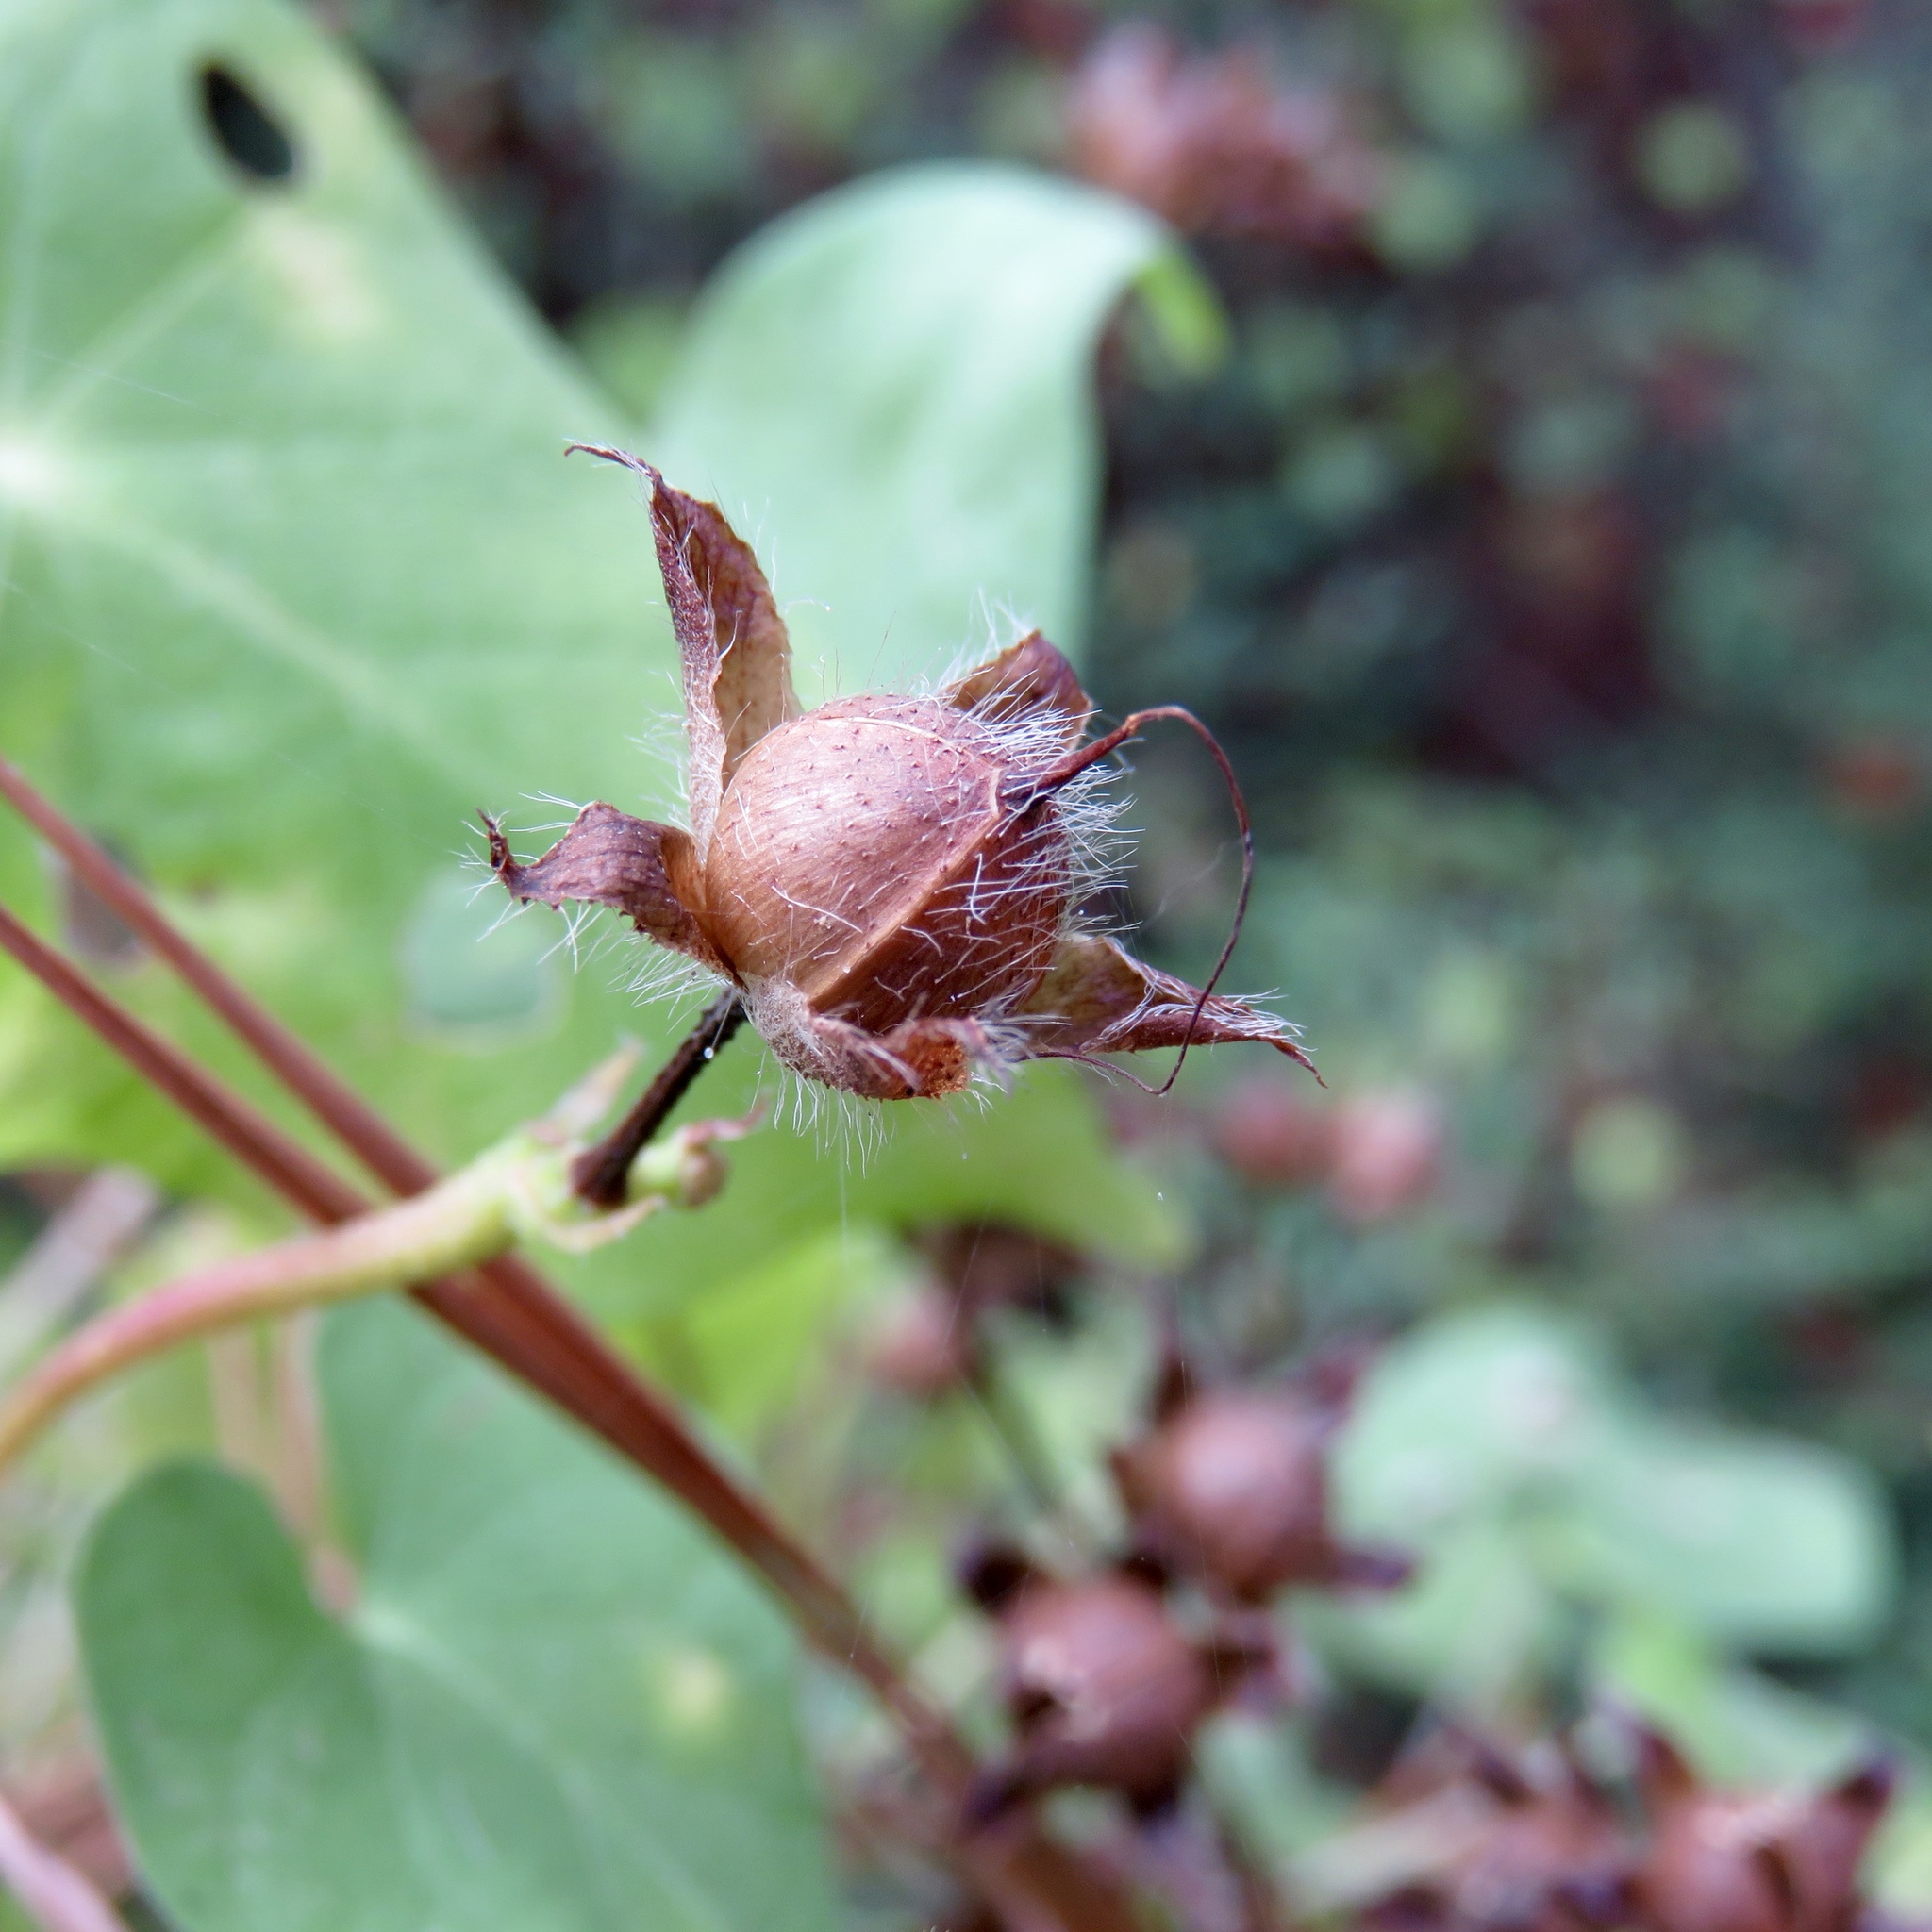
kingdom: Plantae
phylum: Tracheophyta
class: Magnoliopsida
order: Solanales
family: Convolvulaceae
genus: Ipomoea
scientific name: Ipomoea cordatotriloba
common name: Cotton morning glory
